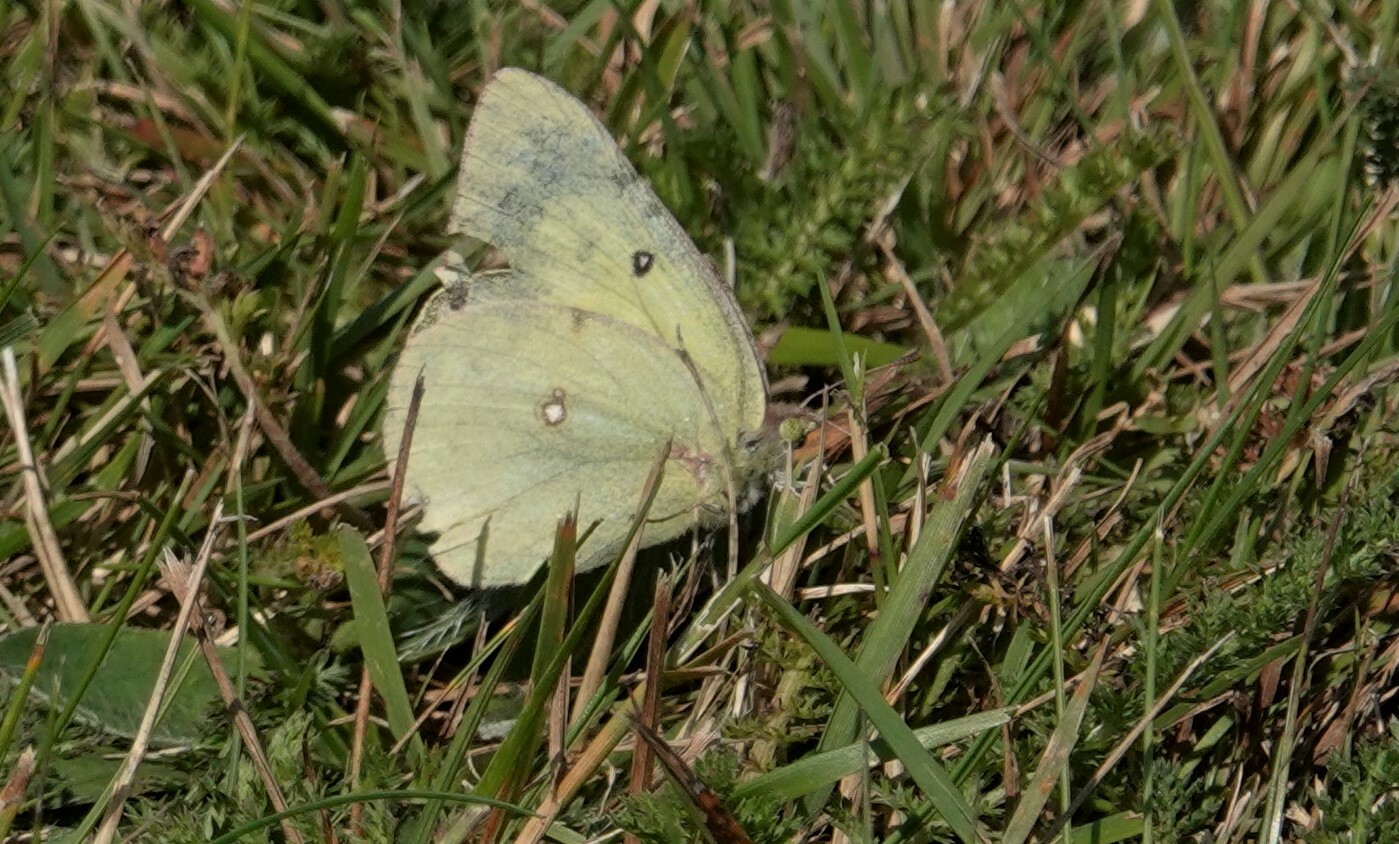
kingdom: Animalia
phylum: Arthropoda
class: Insecta
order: Lepidoptera
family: Pieridae
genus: Colias
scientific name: Colias philodice
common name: Clouded sulphur
